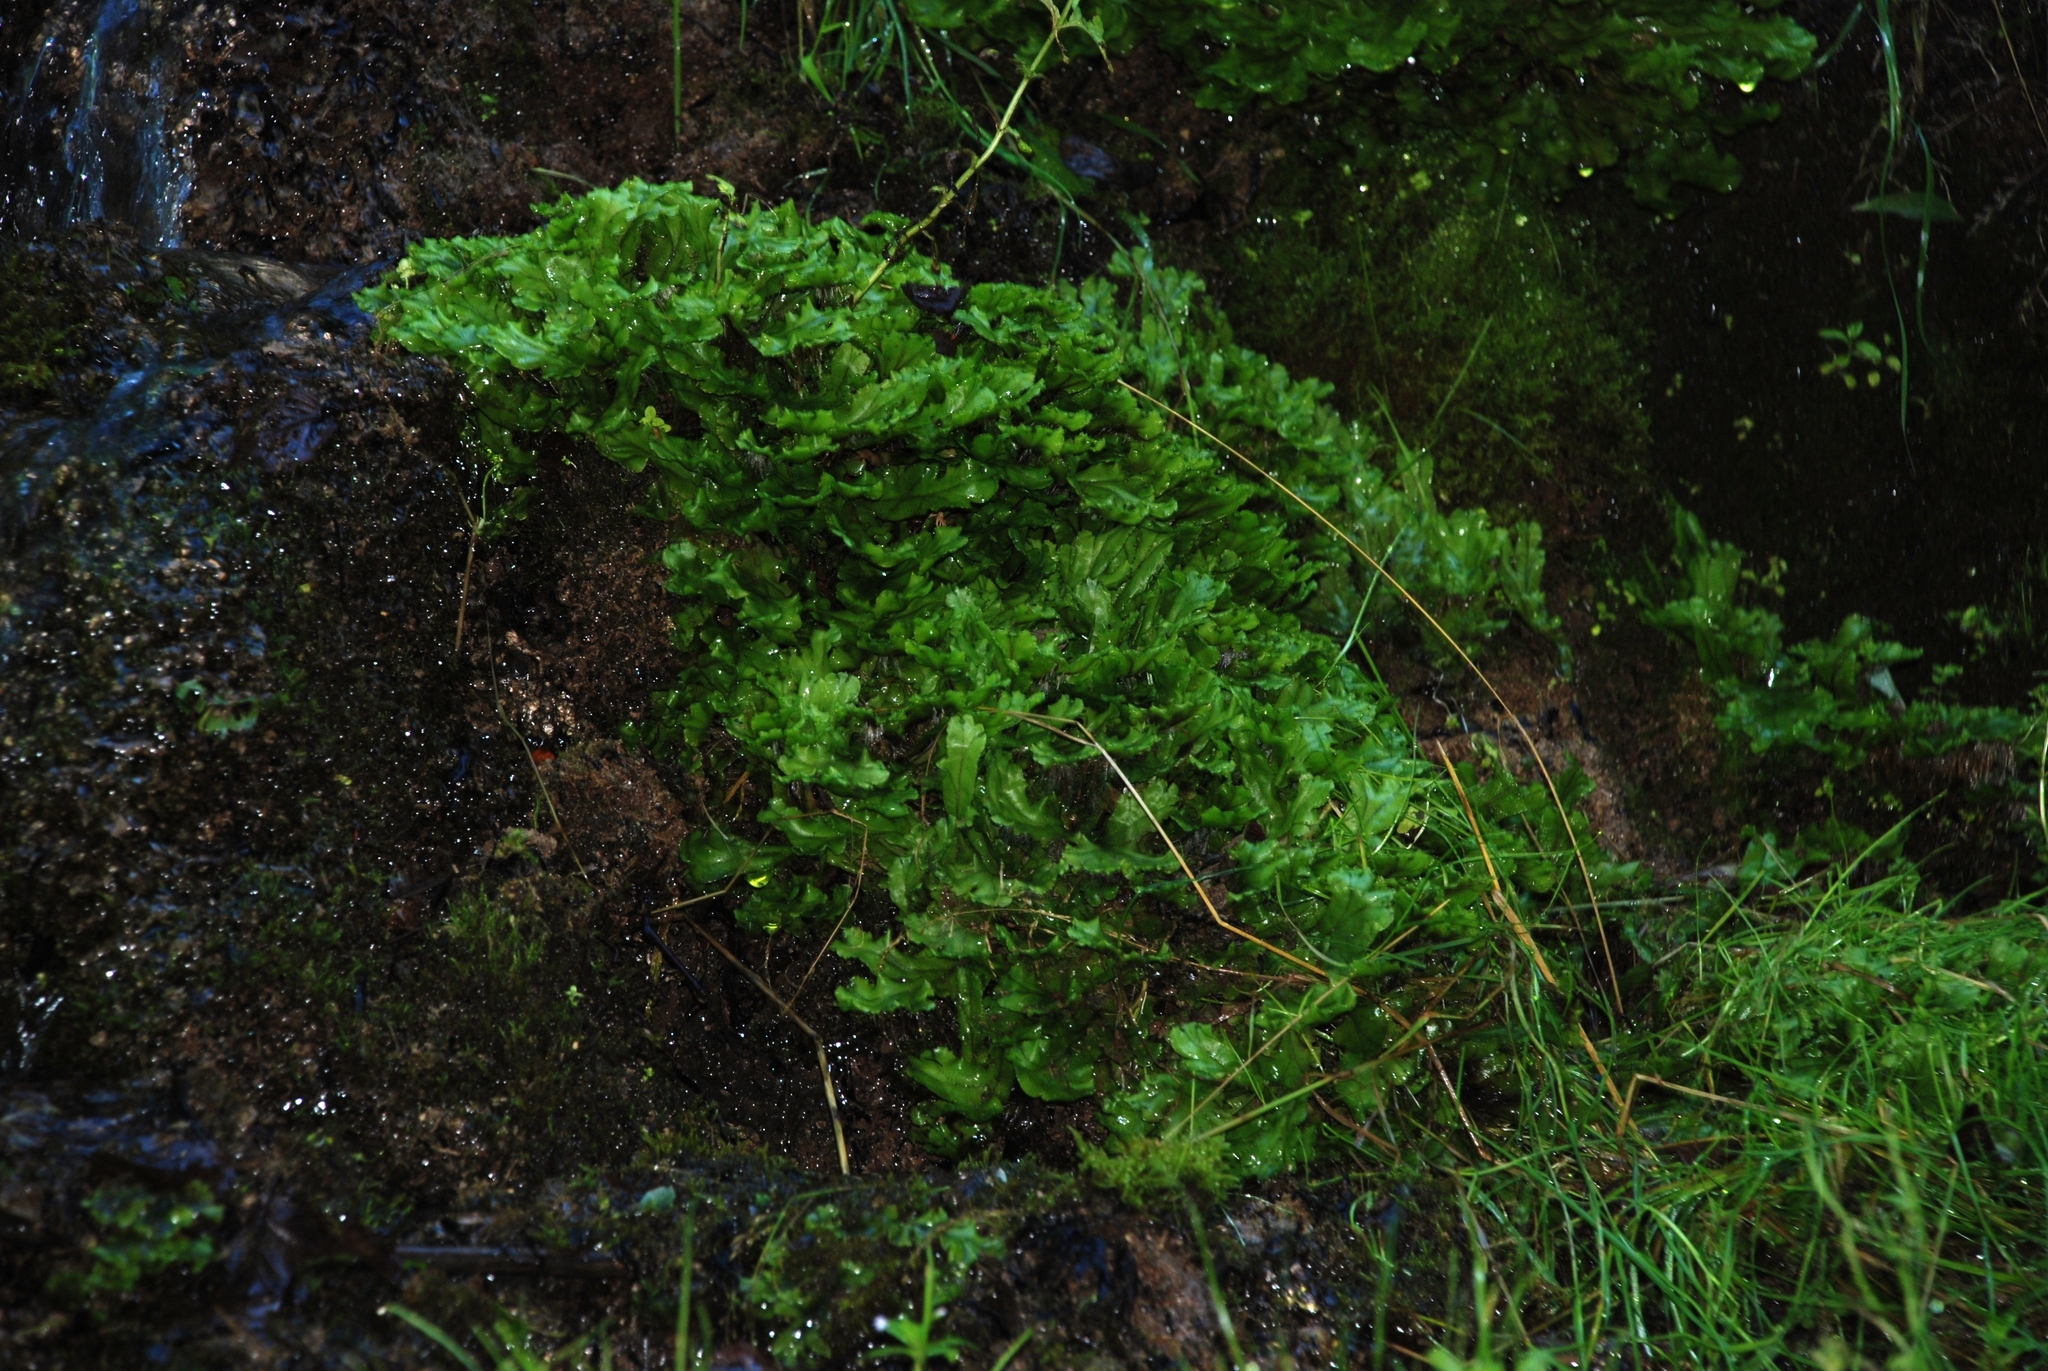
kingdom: Plantae
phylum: Marchantiophyta
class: Marchantiopsida
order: Marchantiales
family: Marchantiaceae
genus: Marchantia
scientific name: Marchantia polymorpha
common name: Common liverwort
